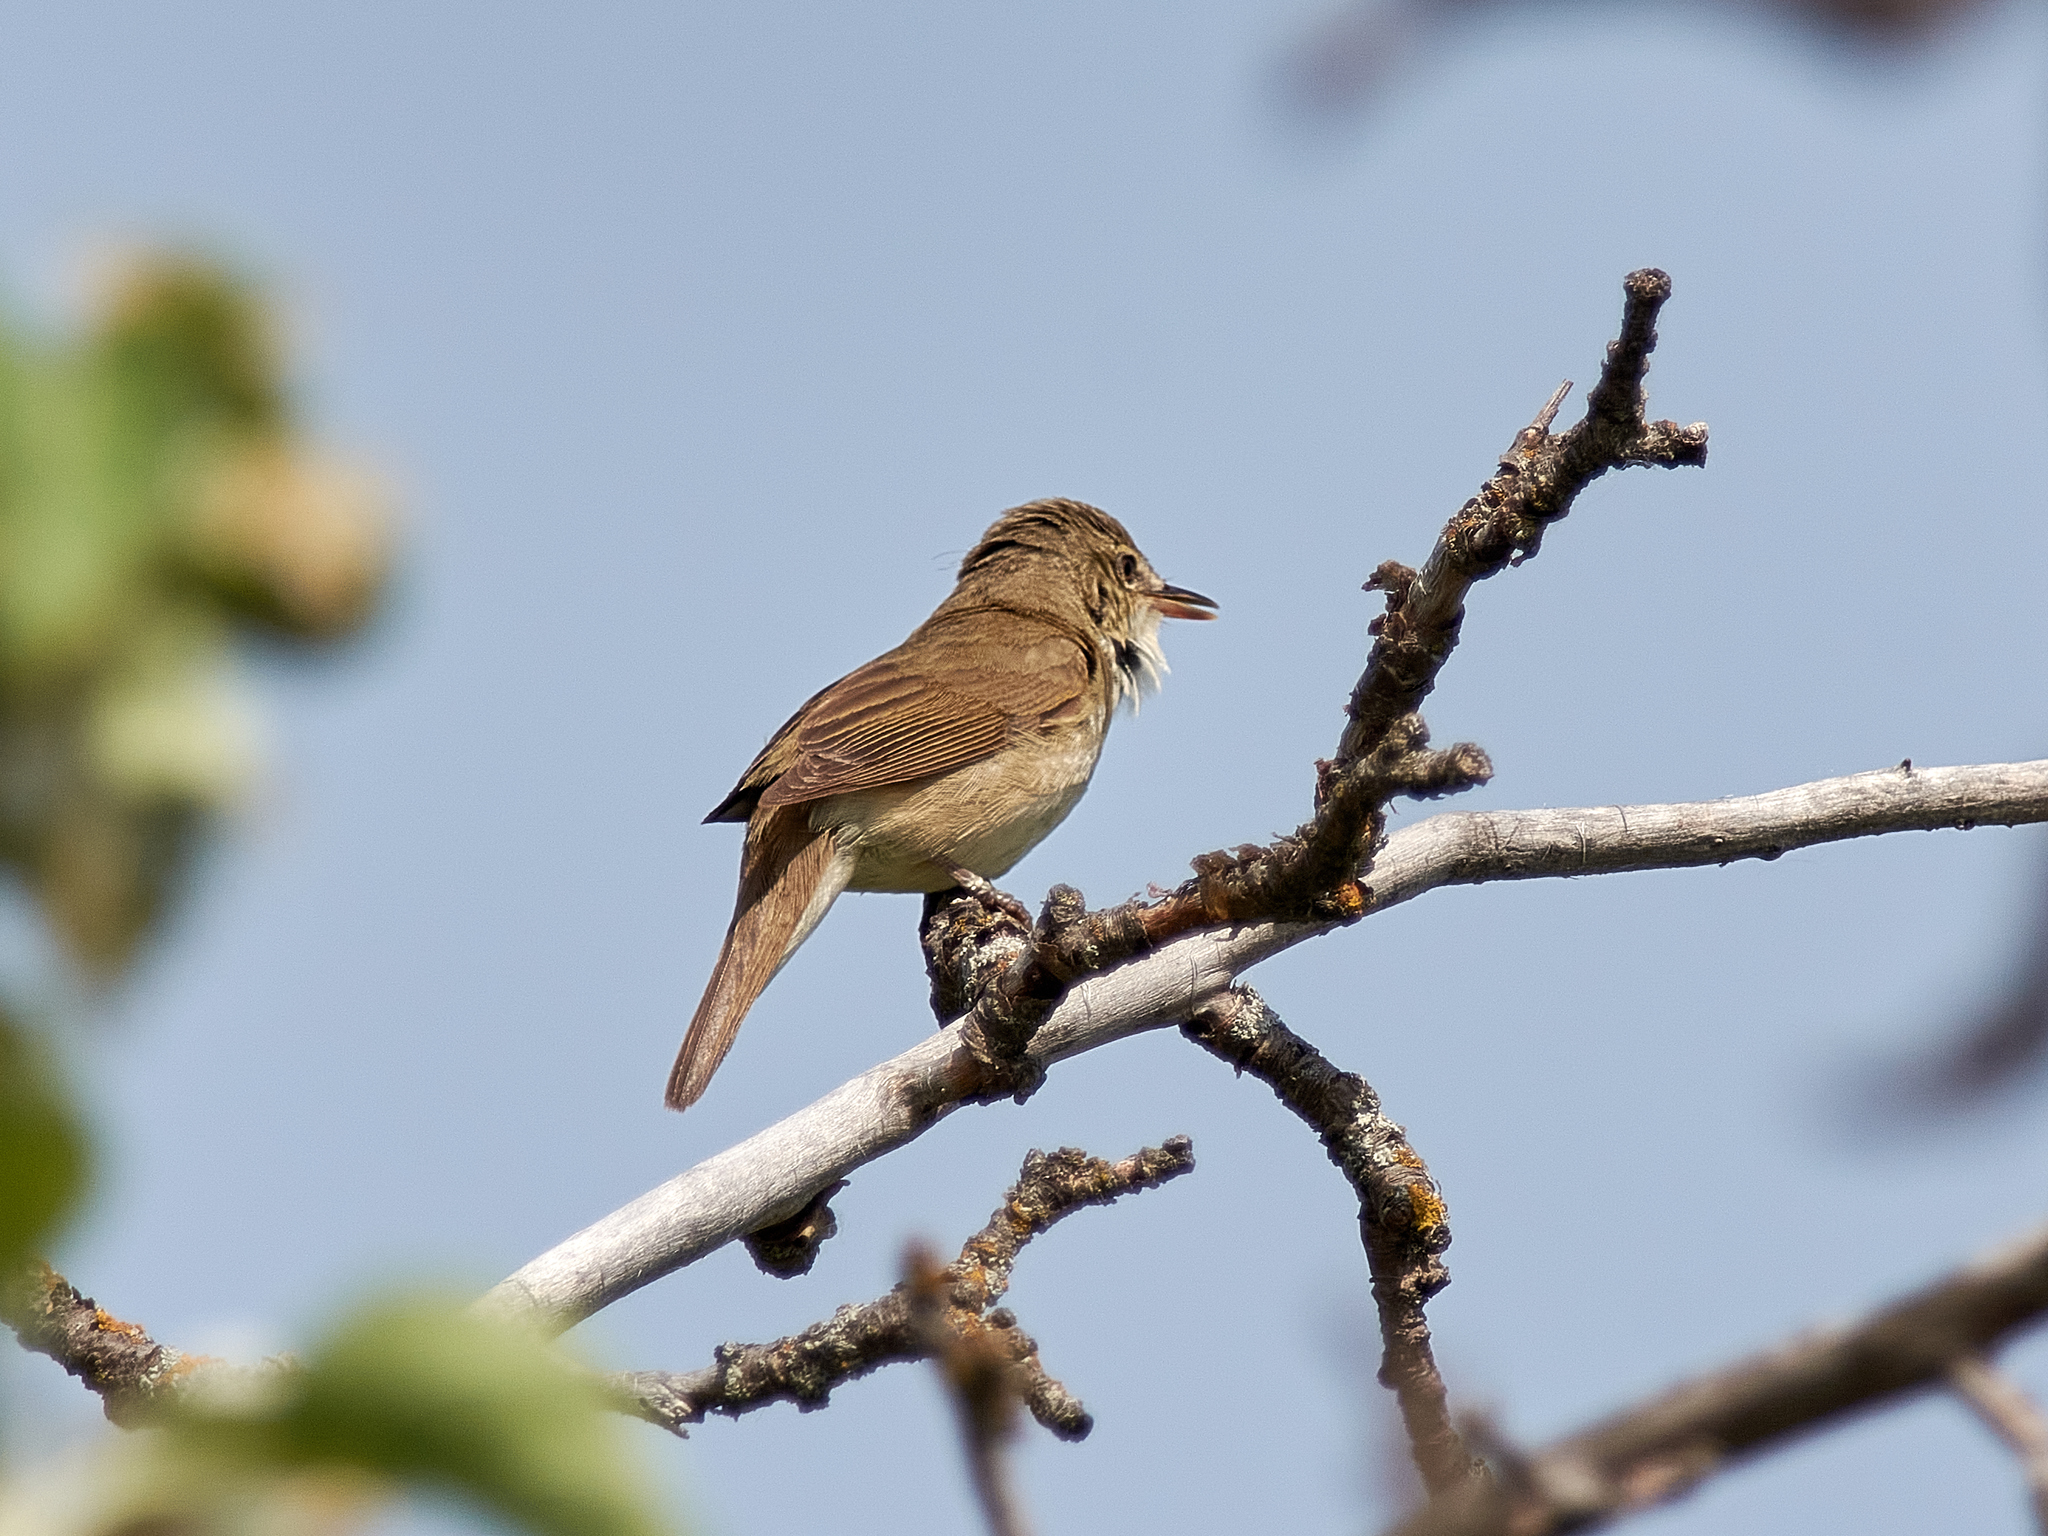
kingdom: Animalia
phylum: Chordata
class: Aves
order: Passeriformes
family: Acrocephalidae
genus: Acrocephalus
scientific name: Acrocephalus dumetorum
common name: Blyth's reed warbler
